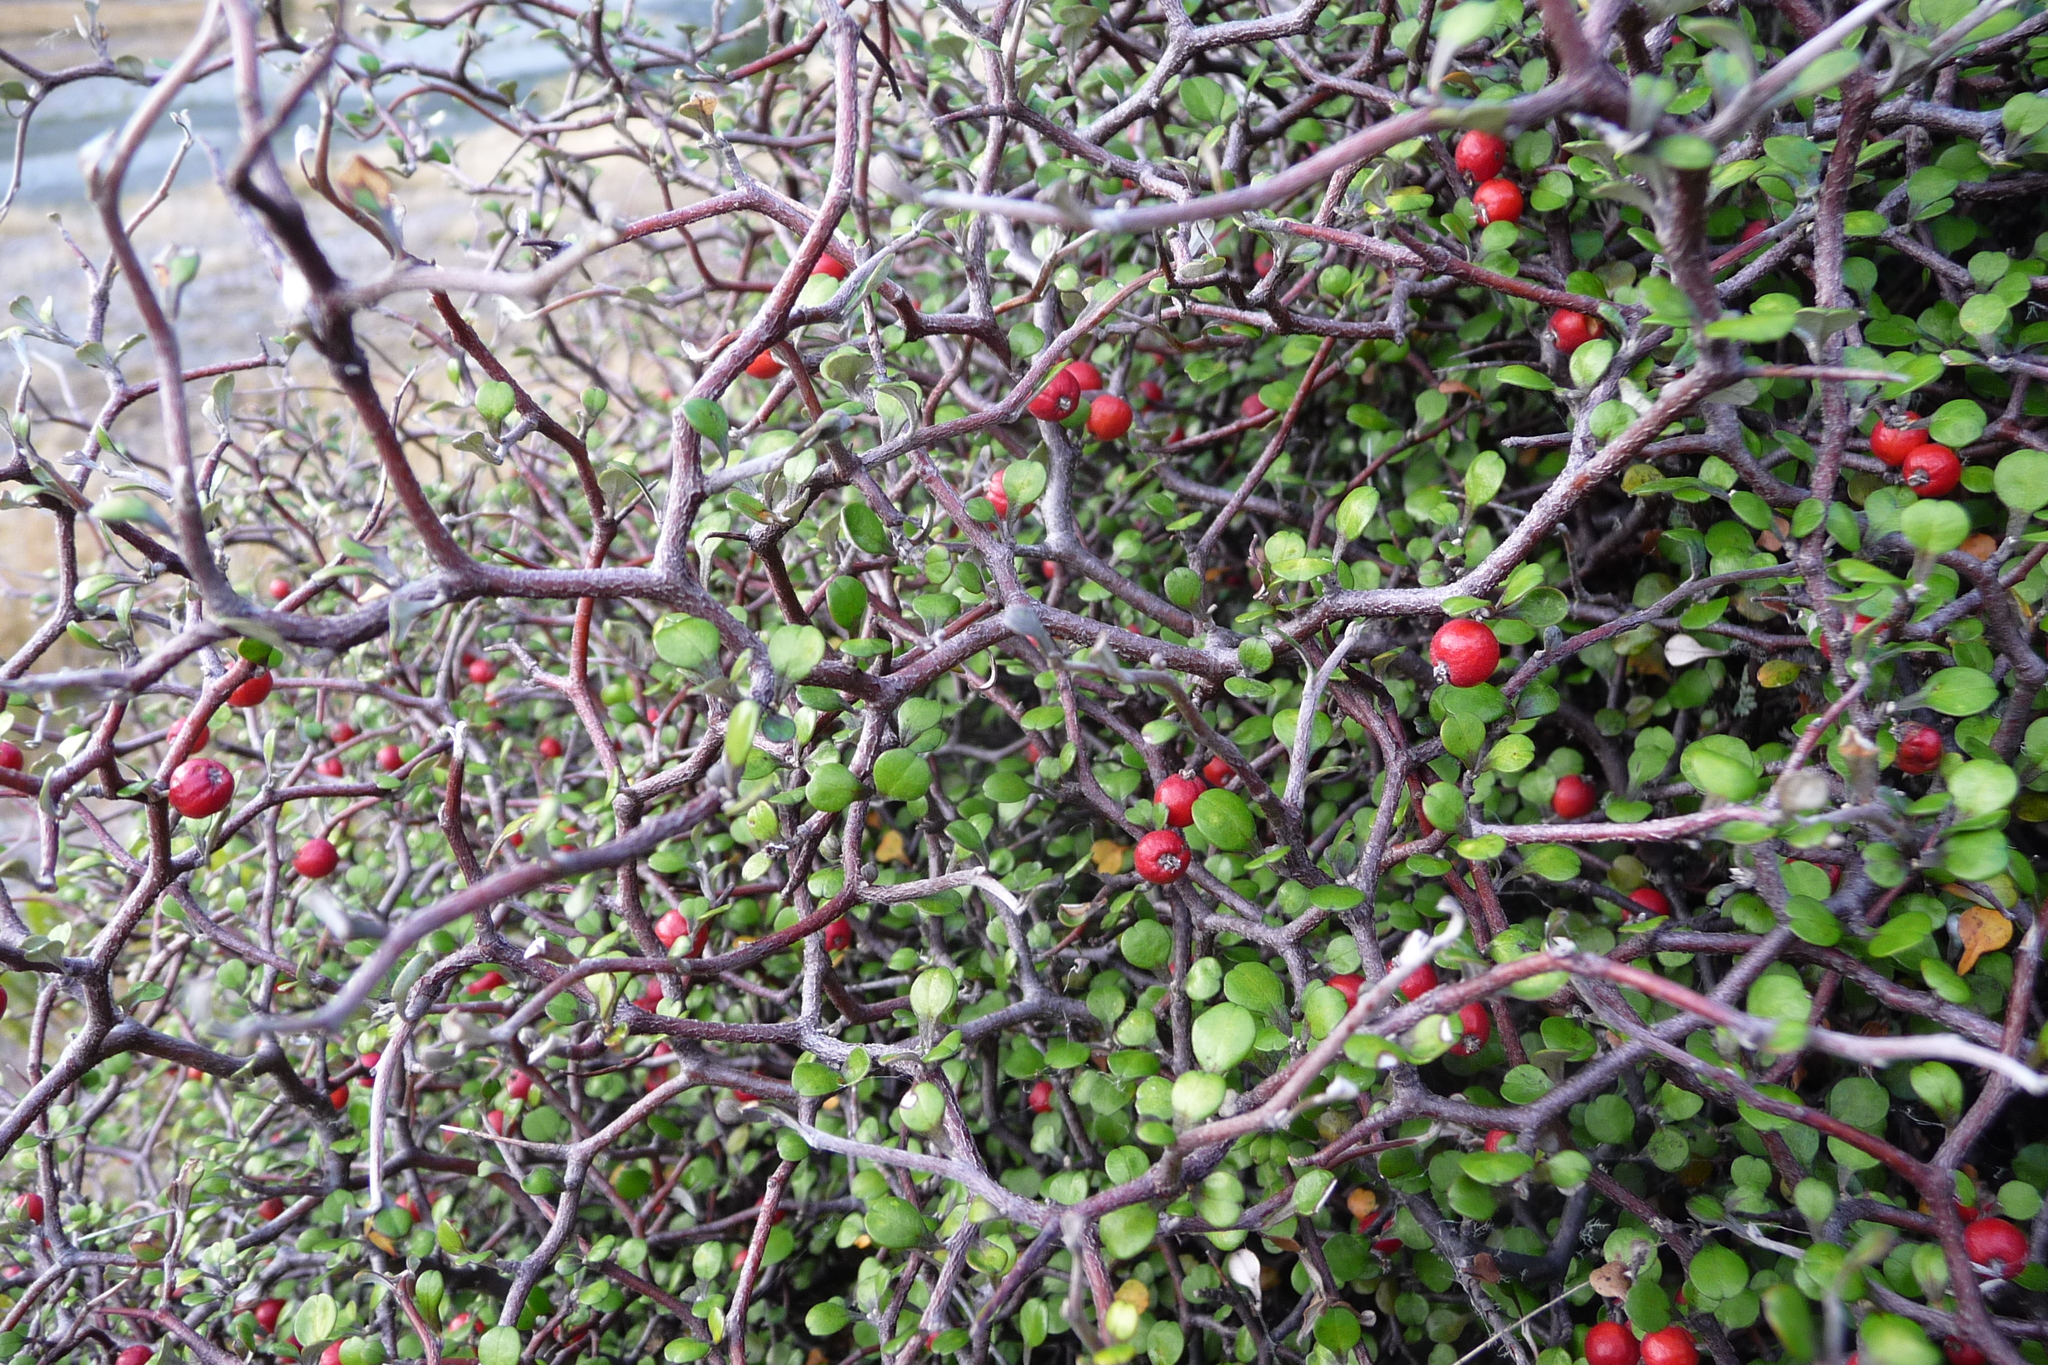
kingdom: Plantae
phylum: Tracheophyta
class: Magnoliopsida
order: Asterales
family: Argophyllaceae
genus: Corokia
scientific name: Corokia cotoneaster
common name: Wire nettingbush
